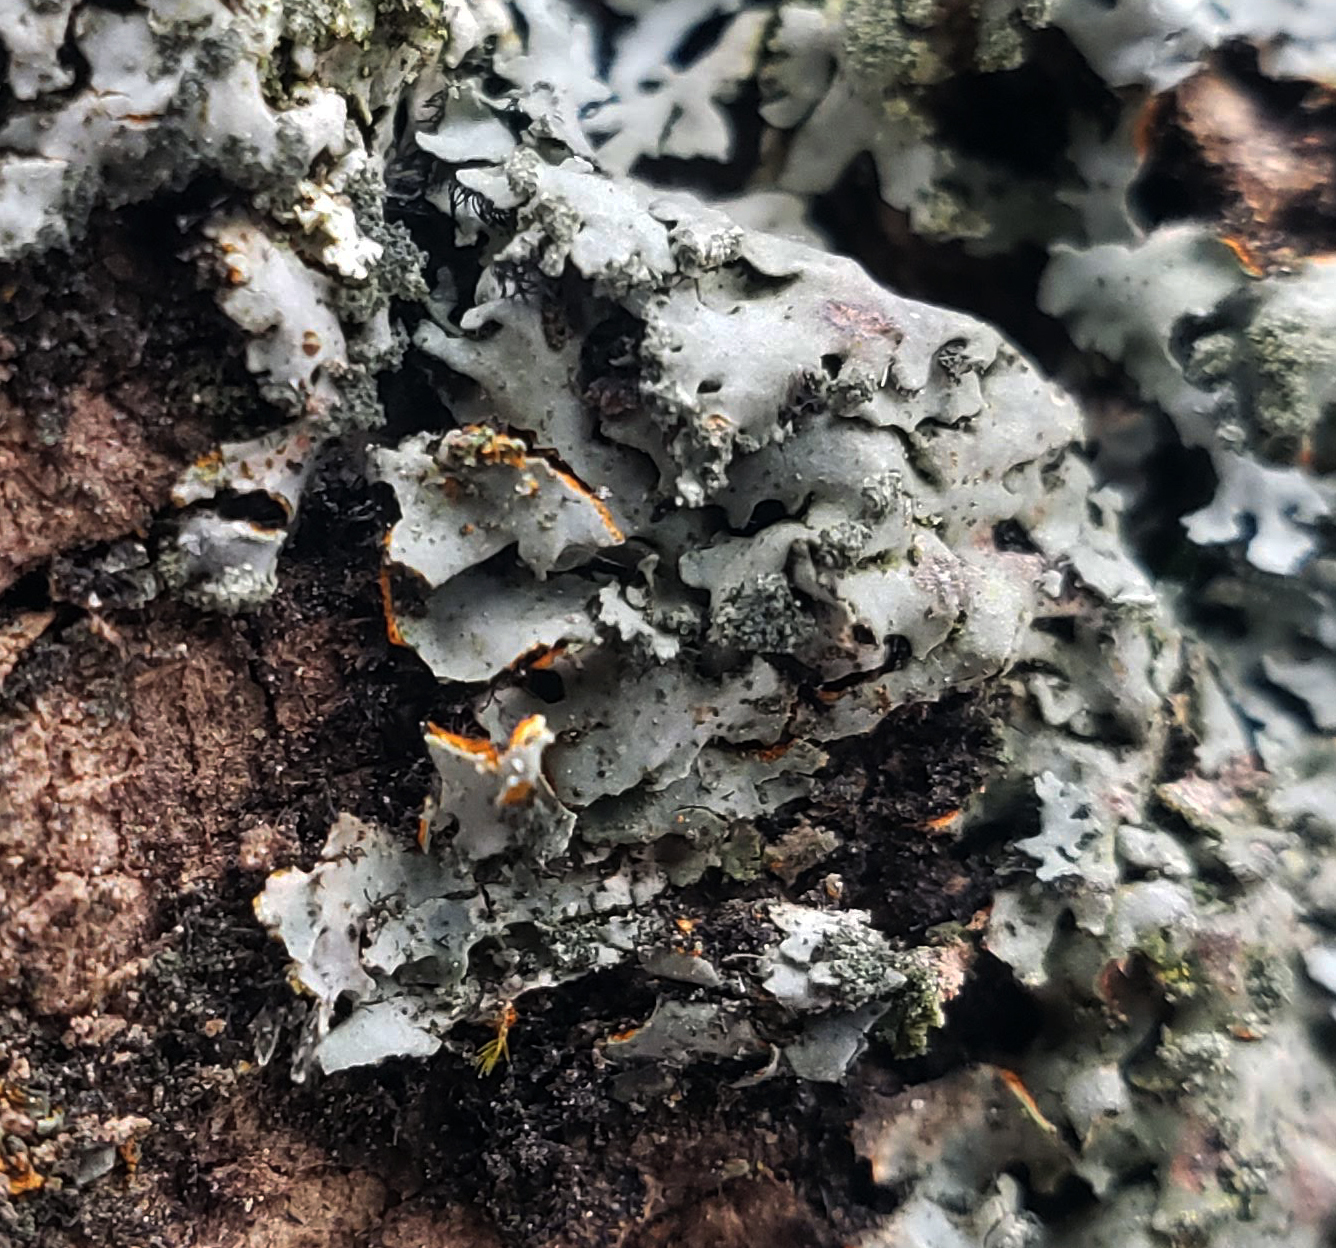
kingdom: Fungi
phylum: Ascomycota
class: Lecanoromycetes
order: Caliciales
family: Physciaceae
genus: Phaeophyscia
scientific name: Phaeophyscia rubropulchra
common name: Orange-cored shadow lichen
